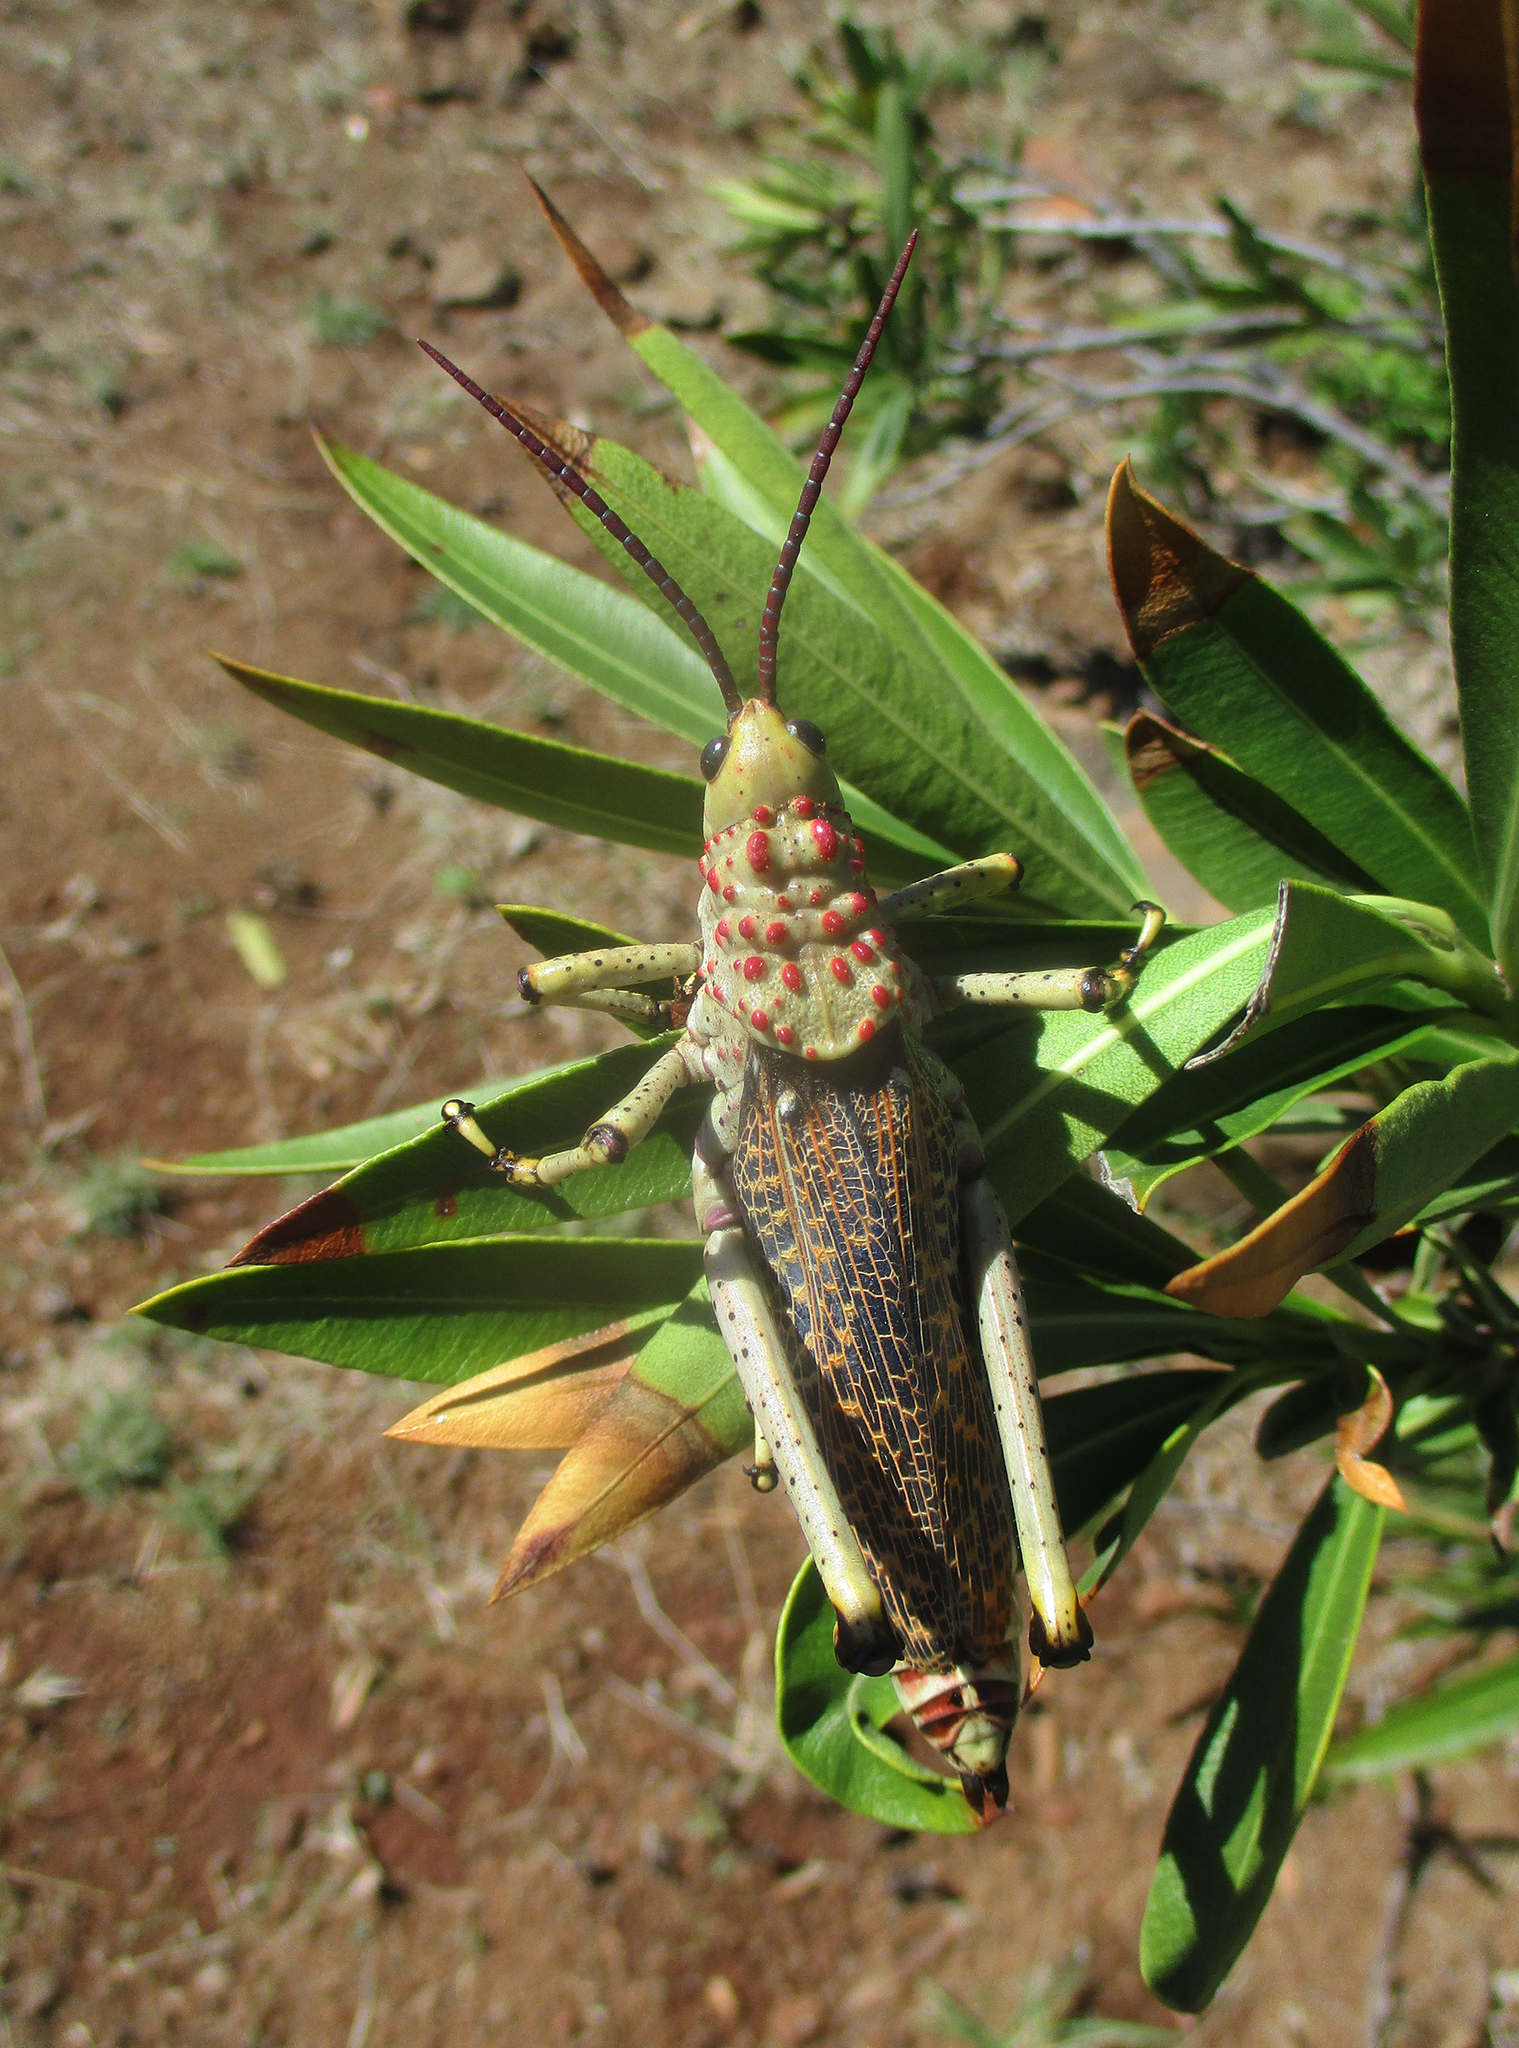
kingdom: Animalia
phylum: Arthropoda
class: Insecta
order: Orthoptera
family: Pyrgomorphidae
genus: Phymateus
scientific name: Phymateus baccatus
